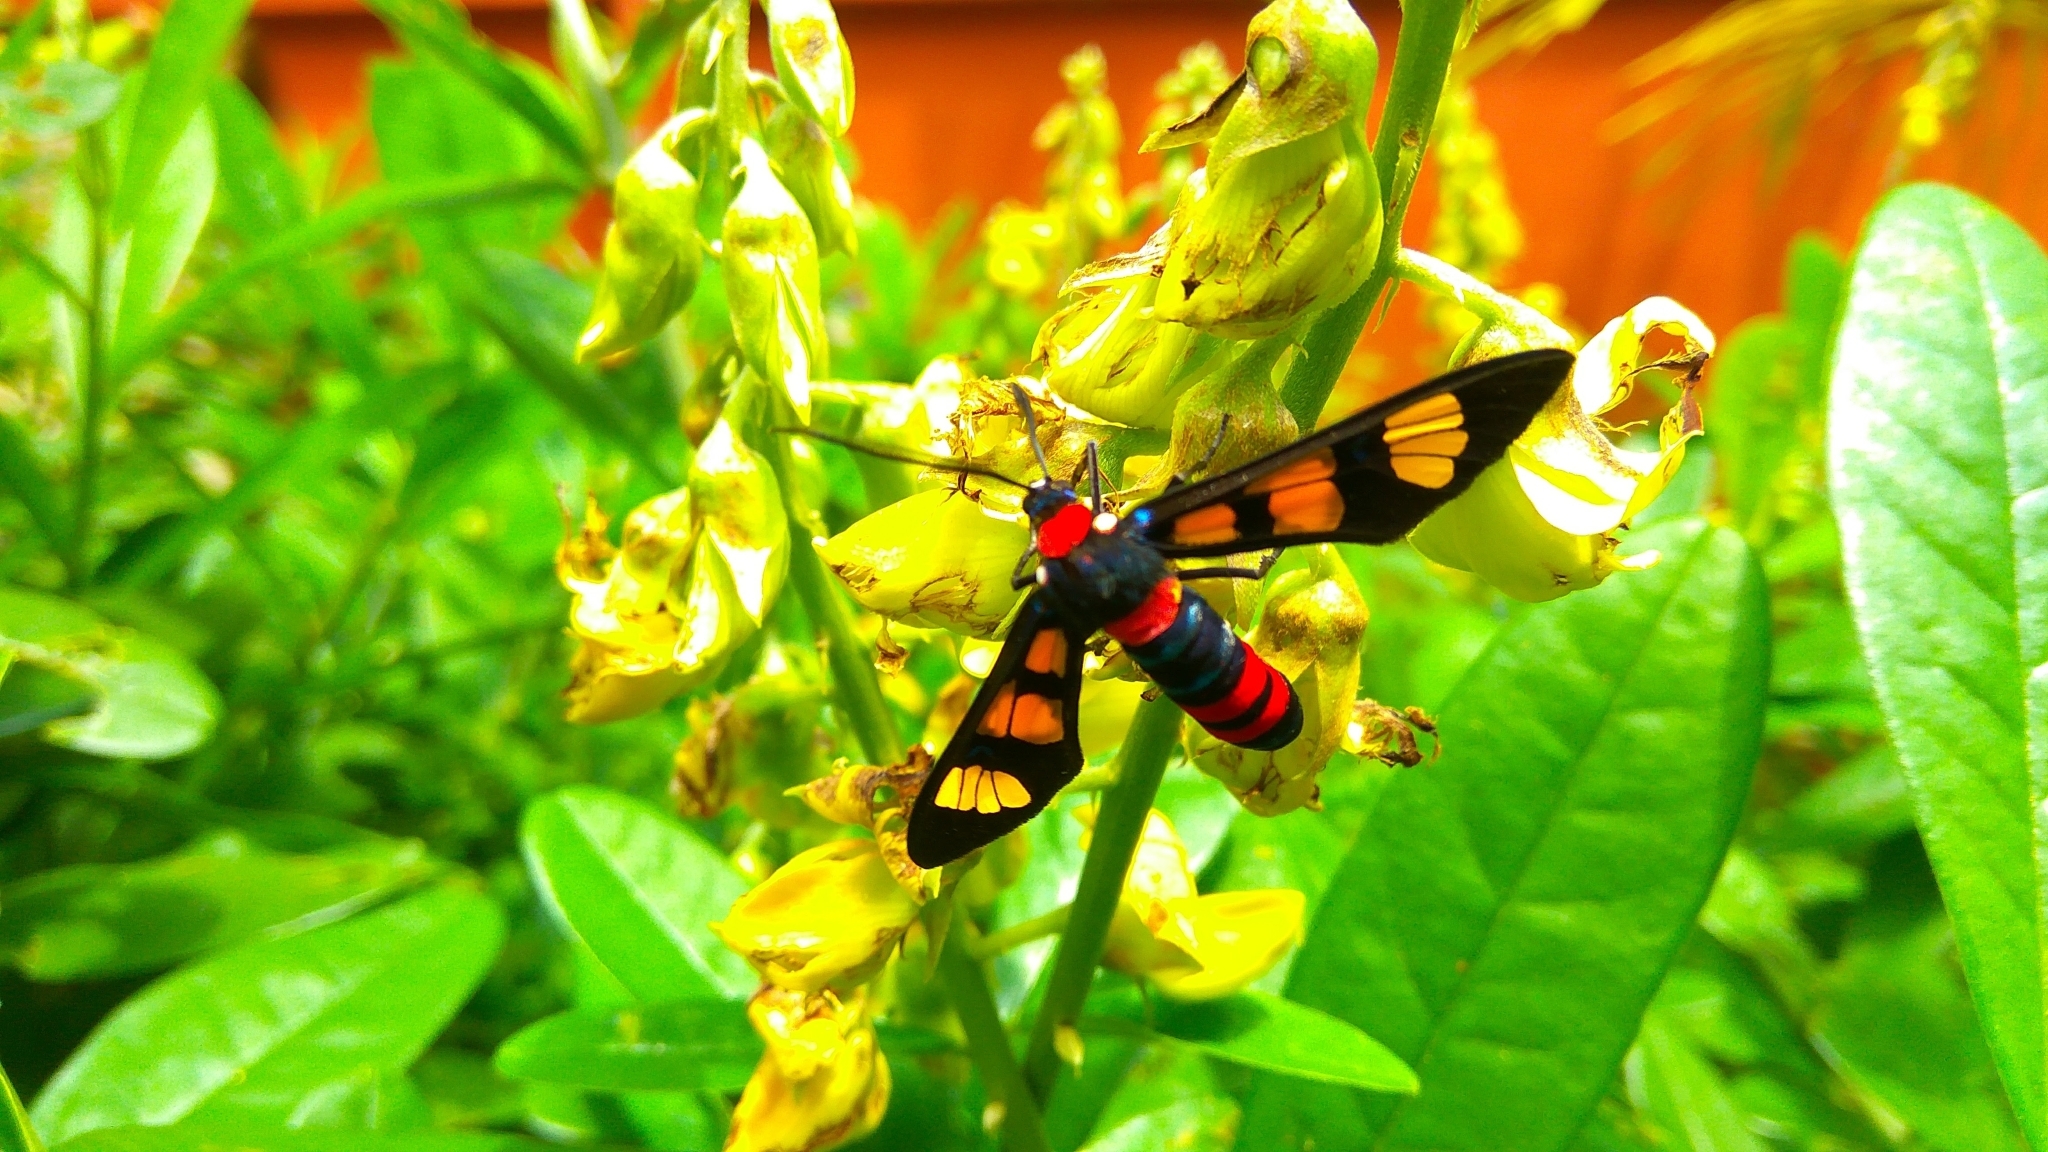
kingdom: Animalia
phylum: Arthropoda
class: Insecta
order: Lepidoptera
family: Erebidae
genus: Euchromia
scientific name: Euchromia polymena
